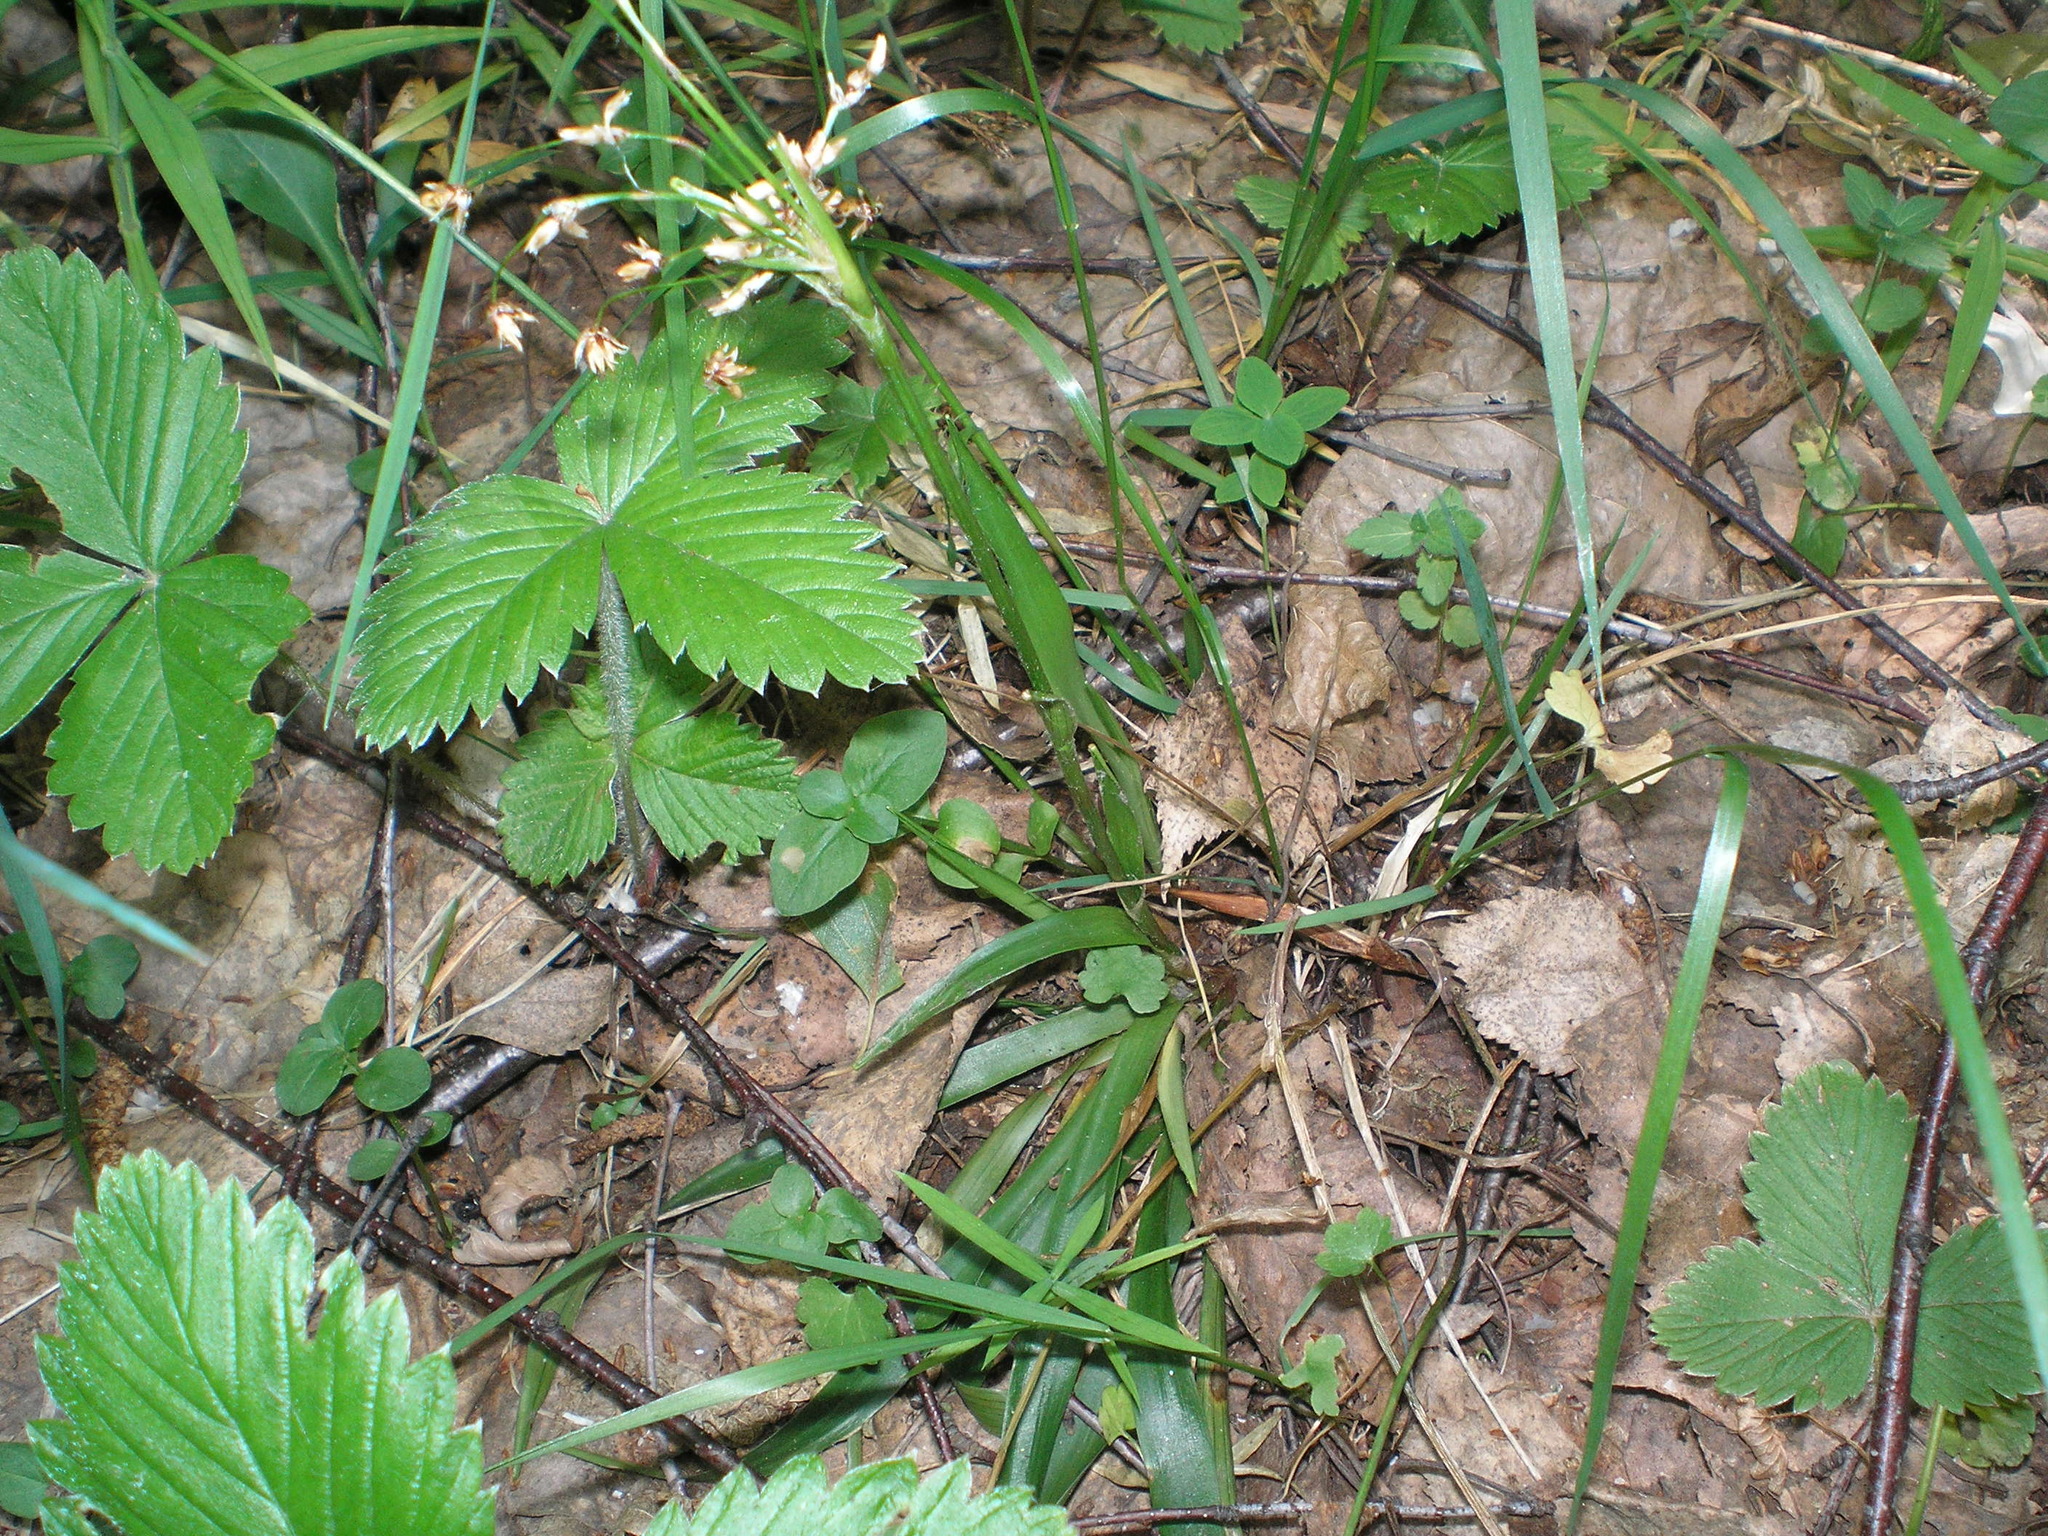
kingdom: Plantae
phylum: Tracheophyta
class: Liliopsida
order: Poales
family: Juncaceae
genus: Luzula
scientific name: Luzula pilosa
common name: Hairy wood-rush
